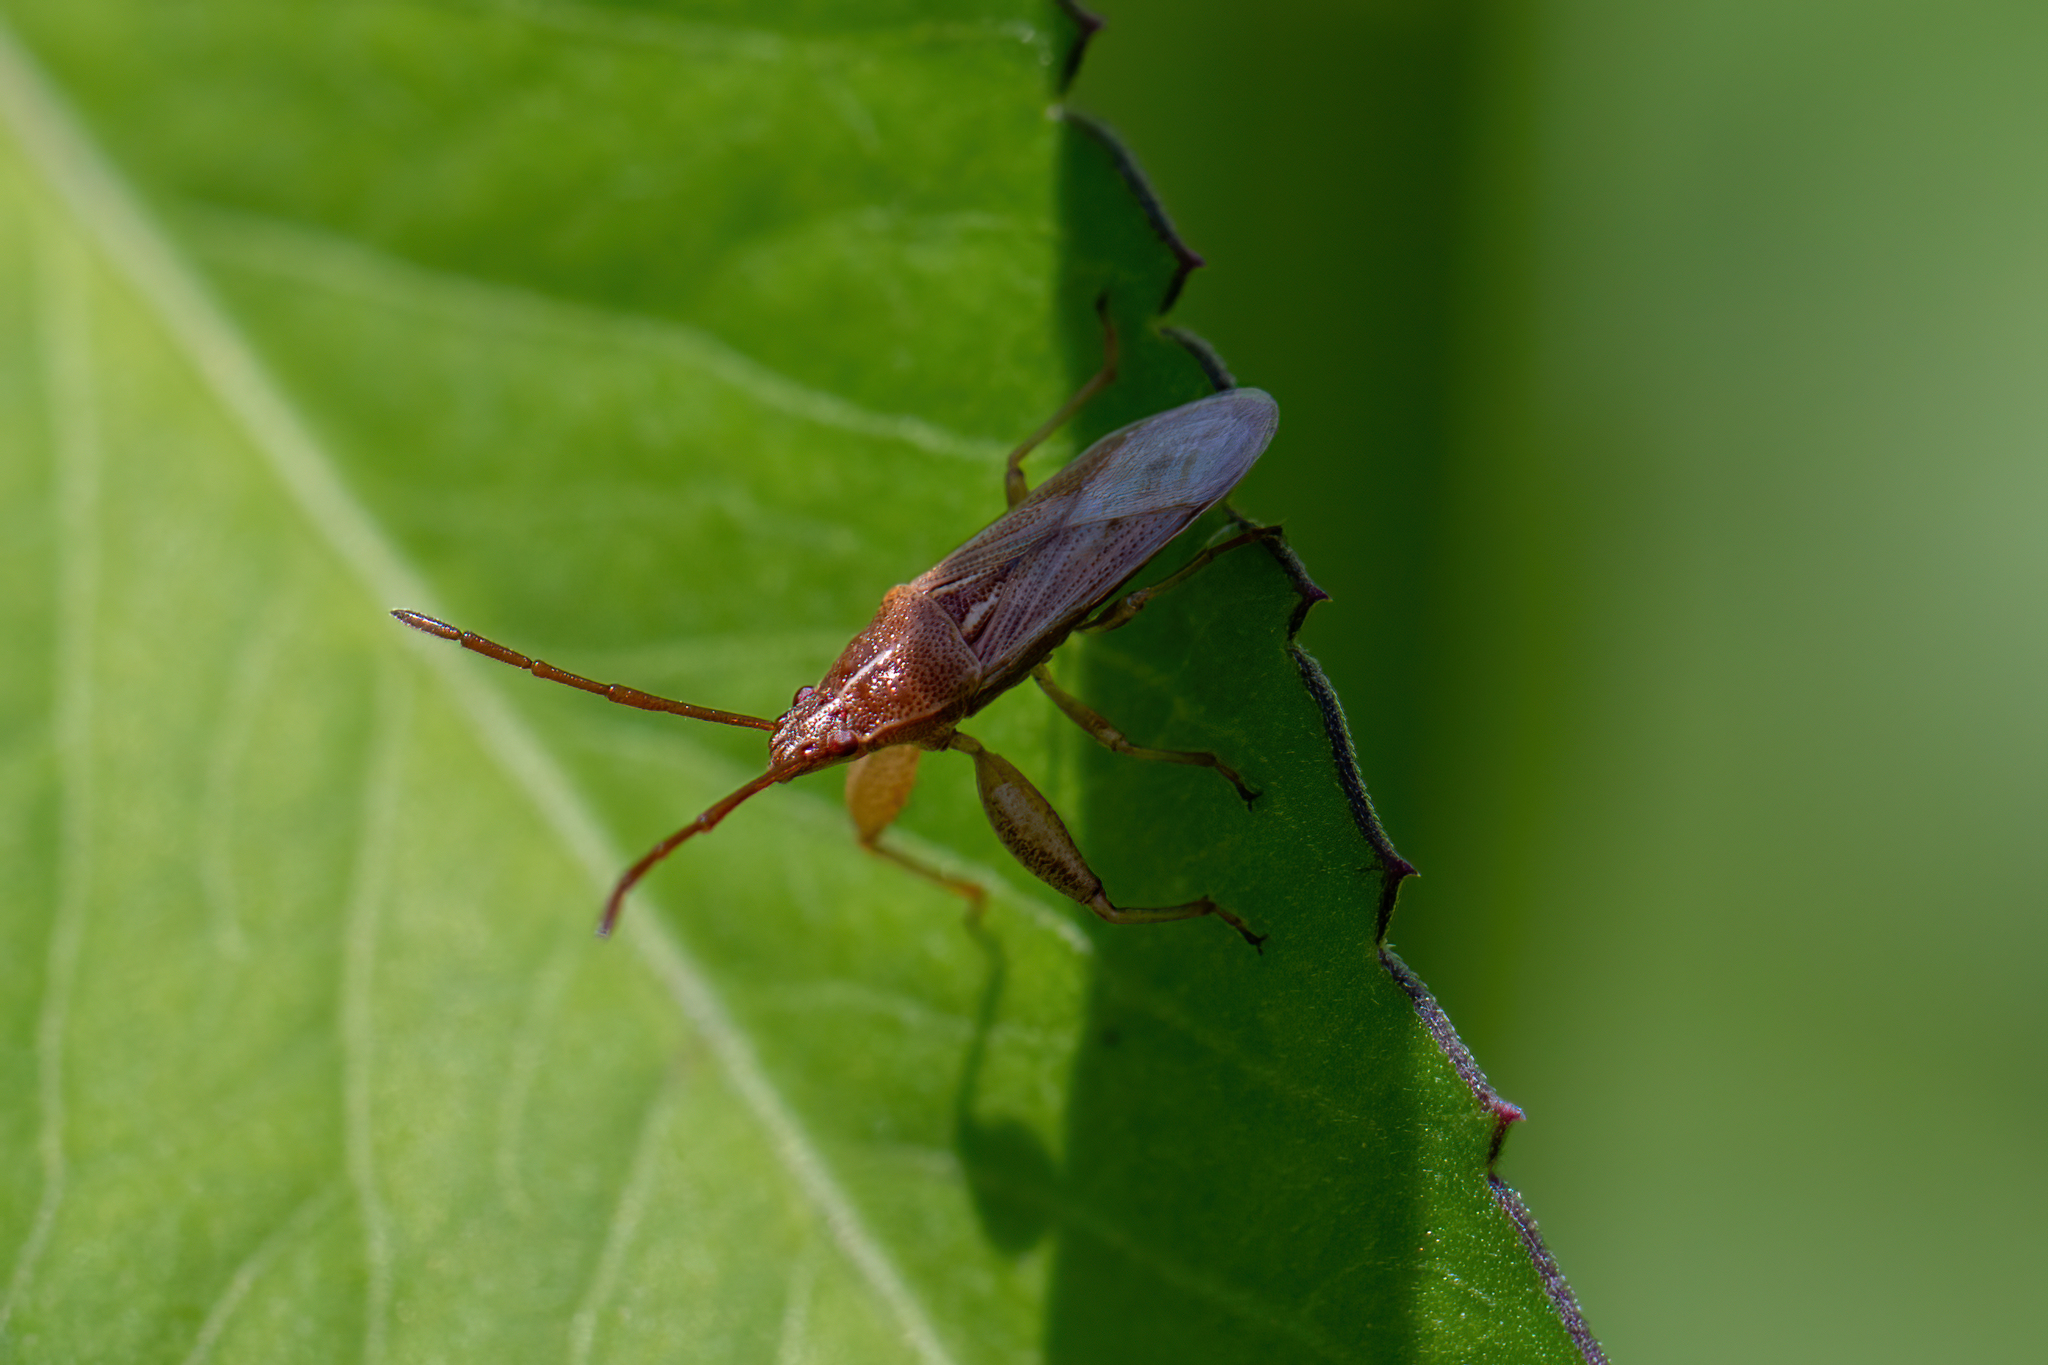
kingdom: Animalia
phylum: Arthropoda
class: Insecta
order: Hemiptera
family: Pachygronthidae
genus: Oedancala
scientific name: Oedancala crassimana
